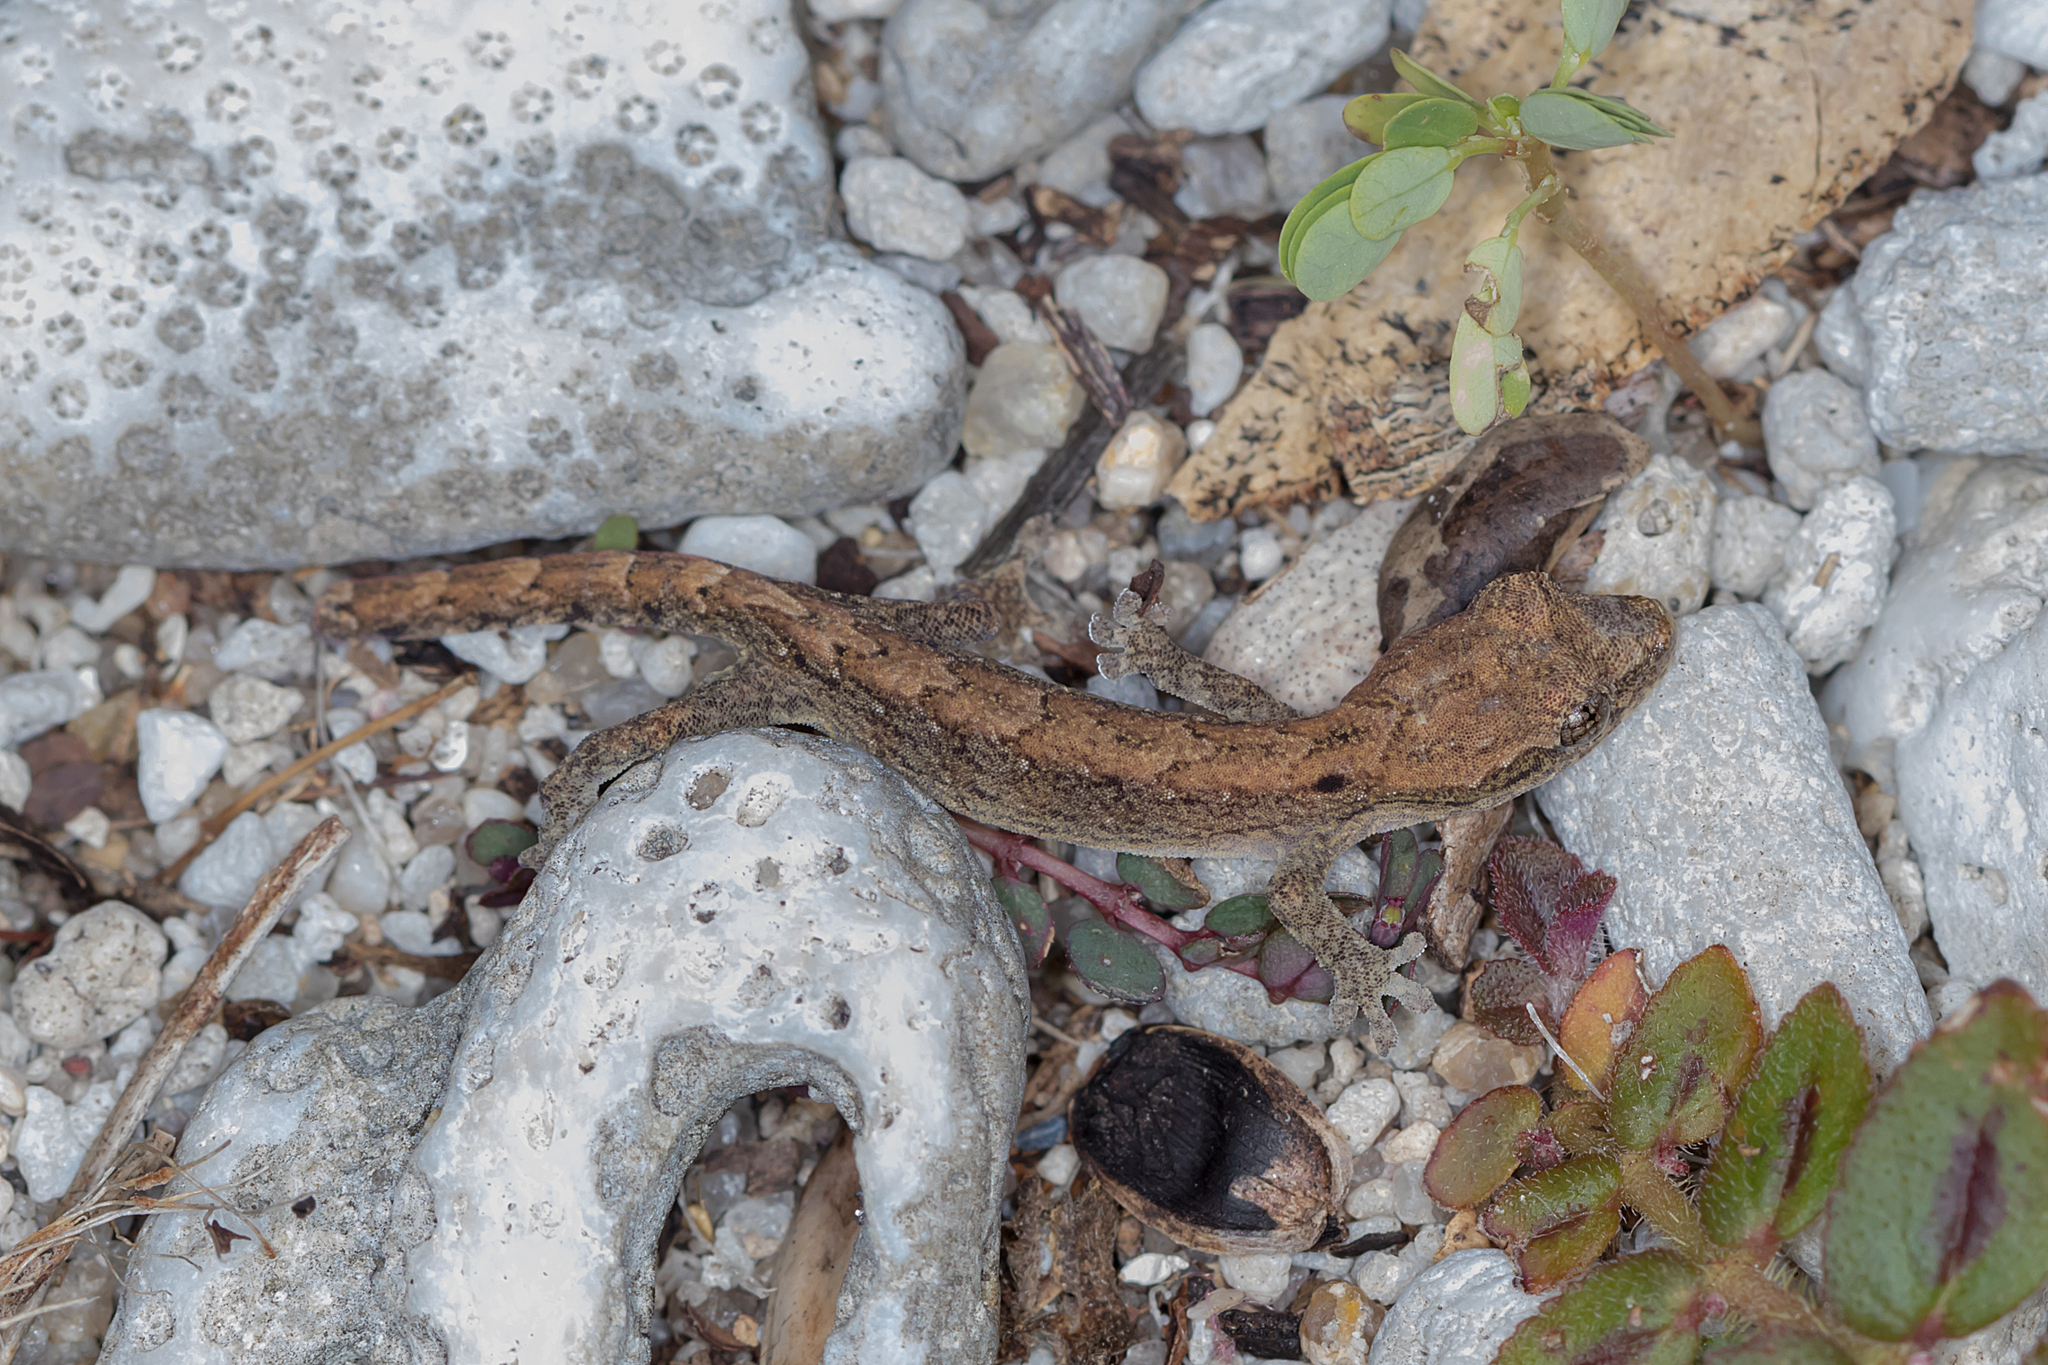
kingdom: Animalia
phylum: Chordata
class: Squamata
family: Gekkonidae
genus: Lepidodactylus
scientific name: Lepidodactylus lugubris
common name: Mourning gecko
